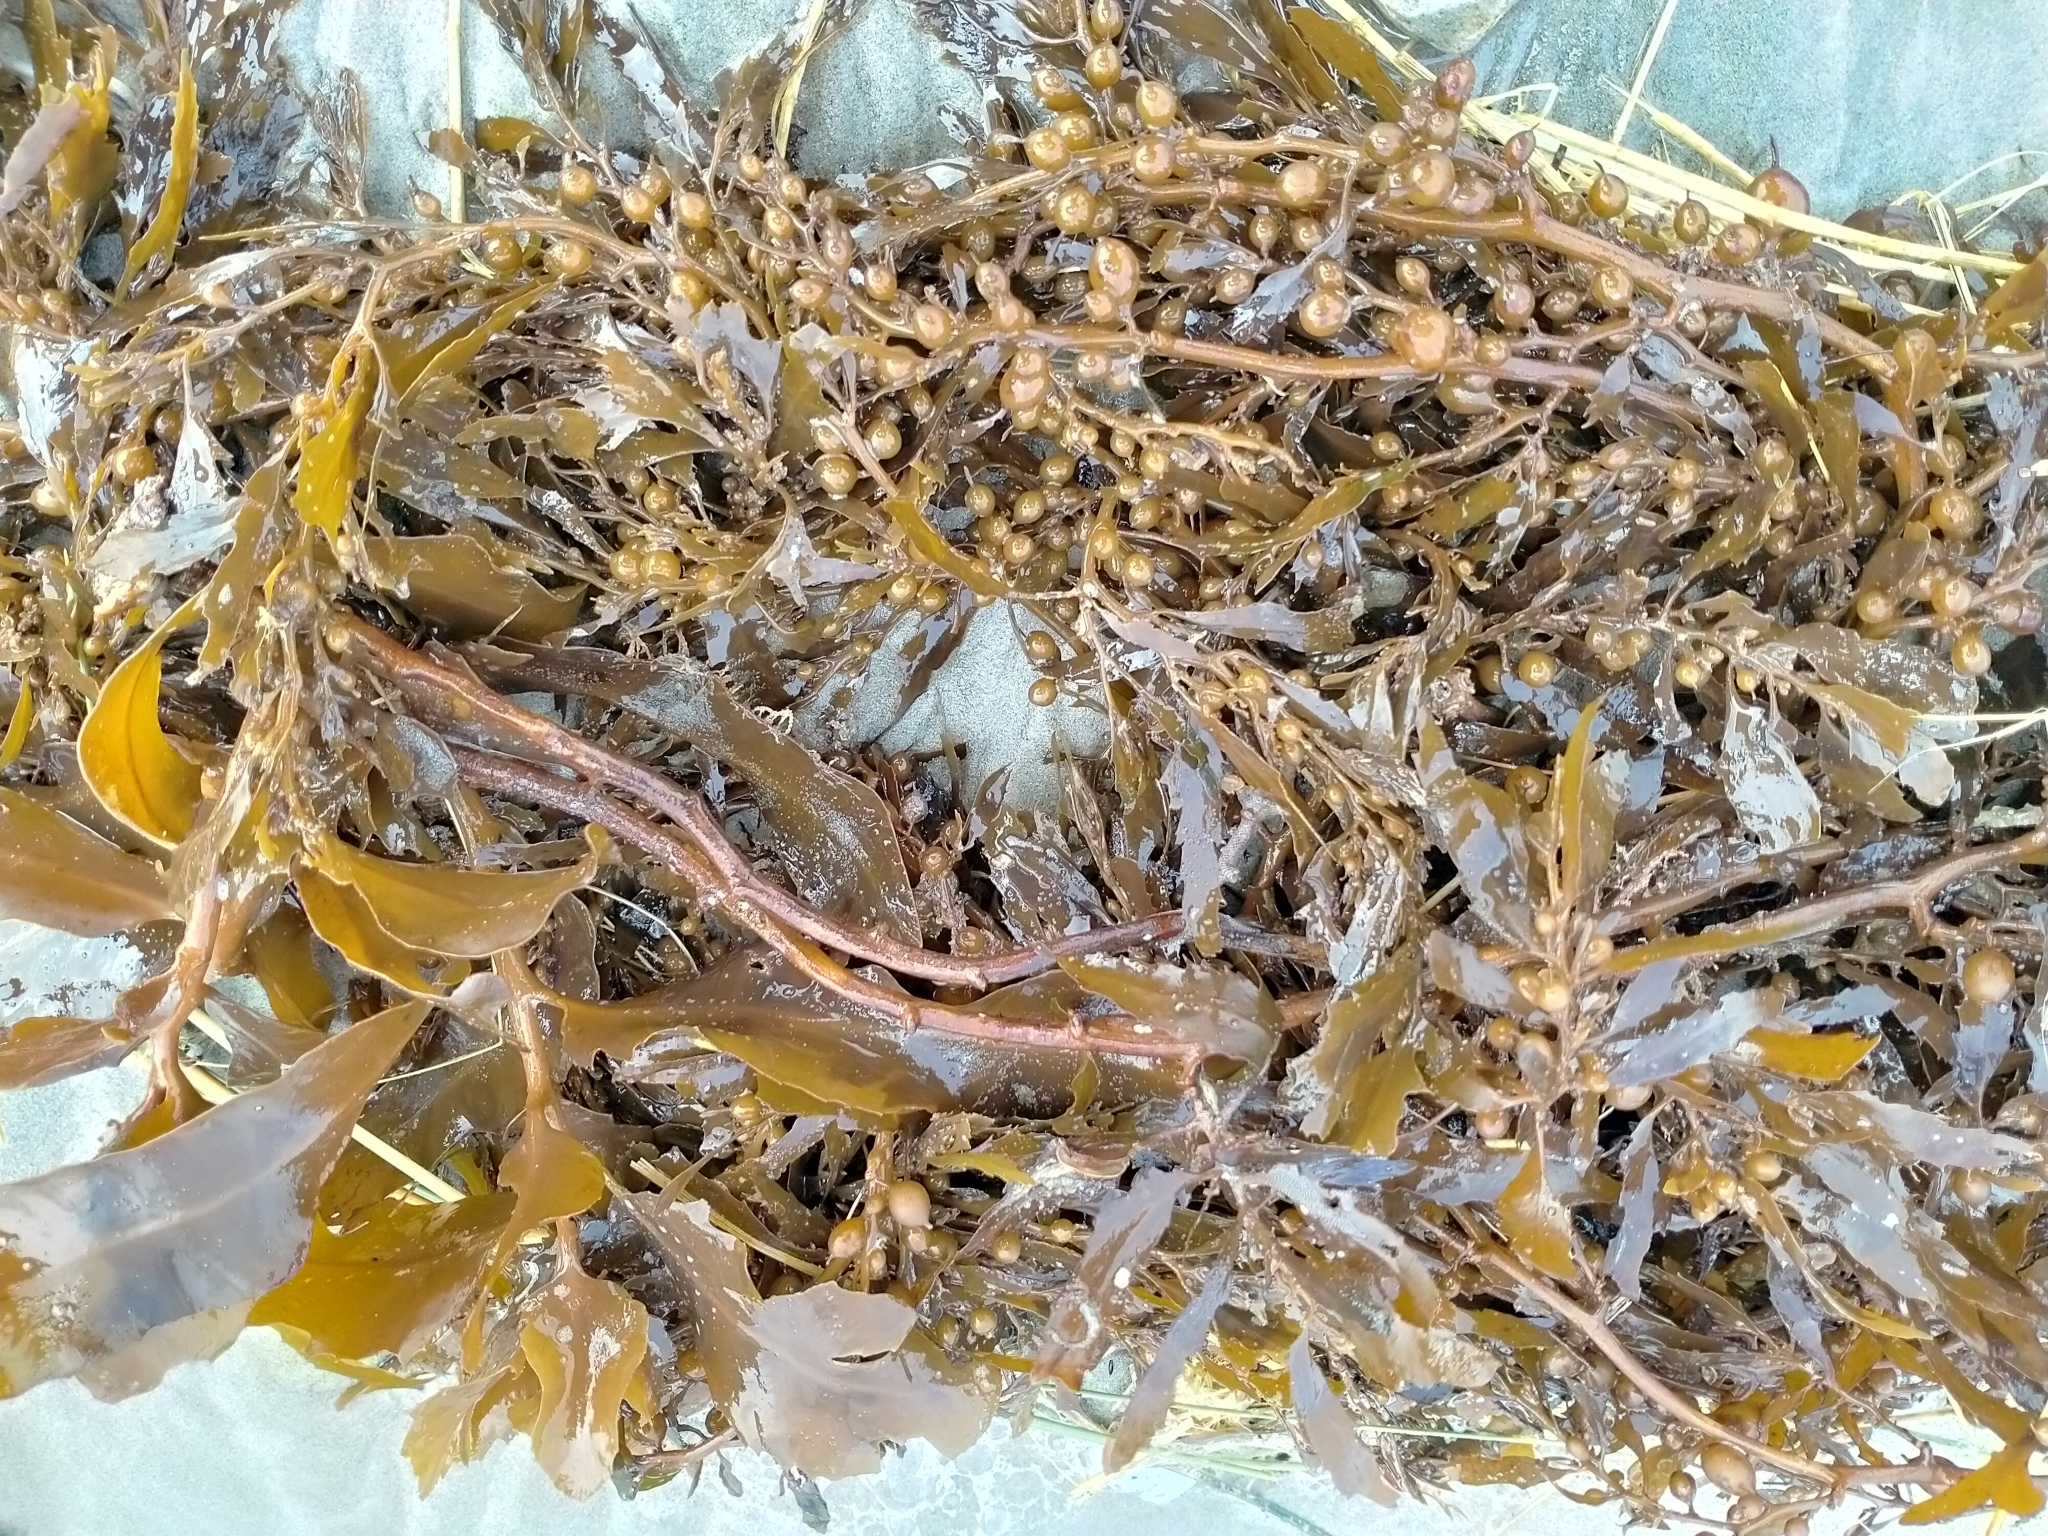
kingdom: Chromista
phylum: Ochrophyta
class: Phaeophyceae
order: Fucales
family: Sargassaceae
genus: Sargassum
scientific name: Sargassum sinclairii
